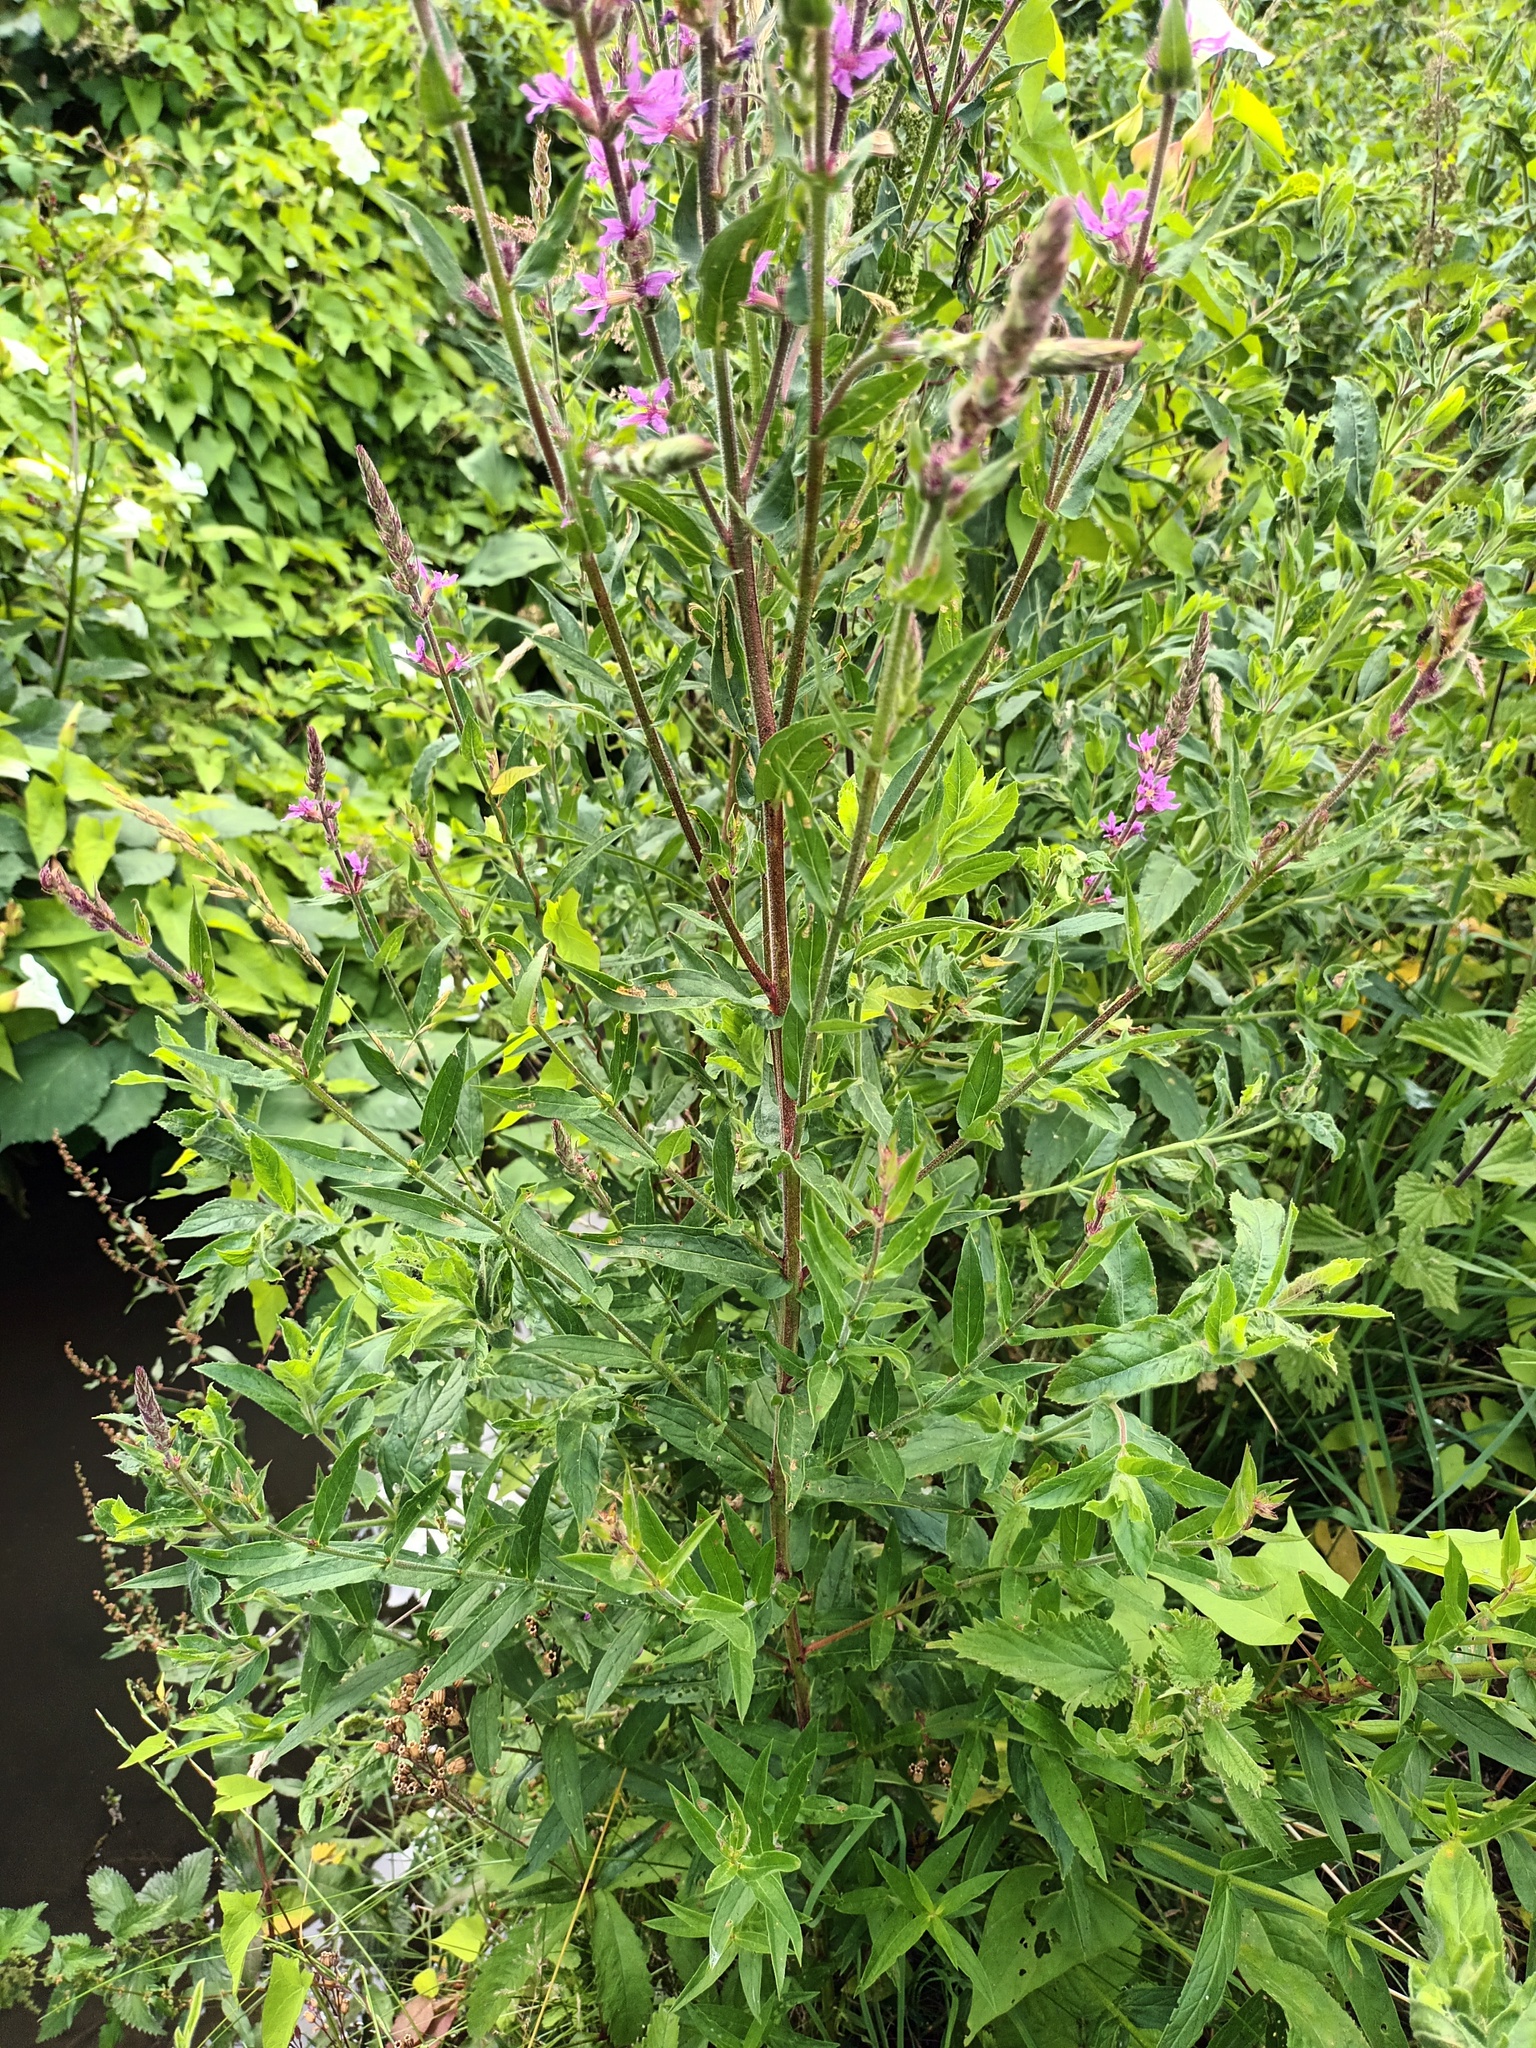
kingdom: Plantae
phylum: Tracheophyta
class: Magnoliopsida
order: Myrtales
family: Lythraceae
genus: Lythrum
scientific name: Lythrum salicaria
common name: Purple loosestrife
